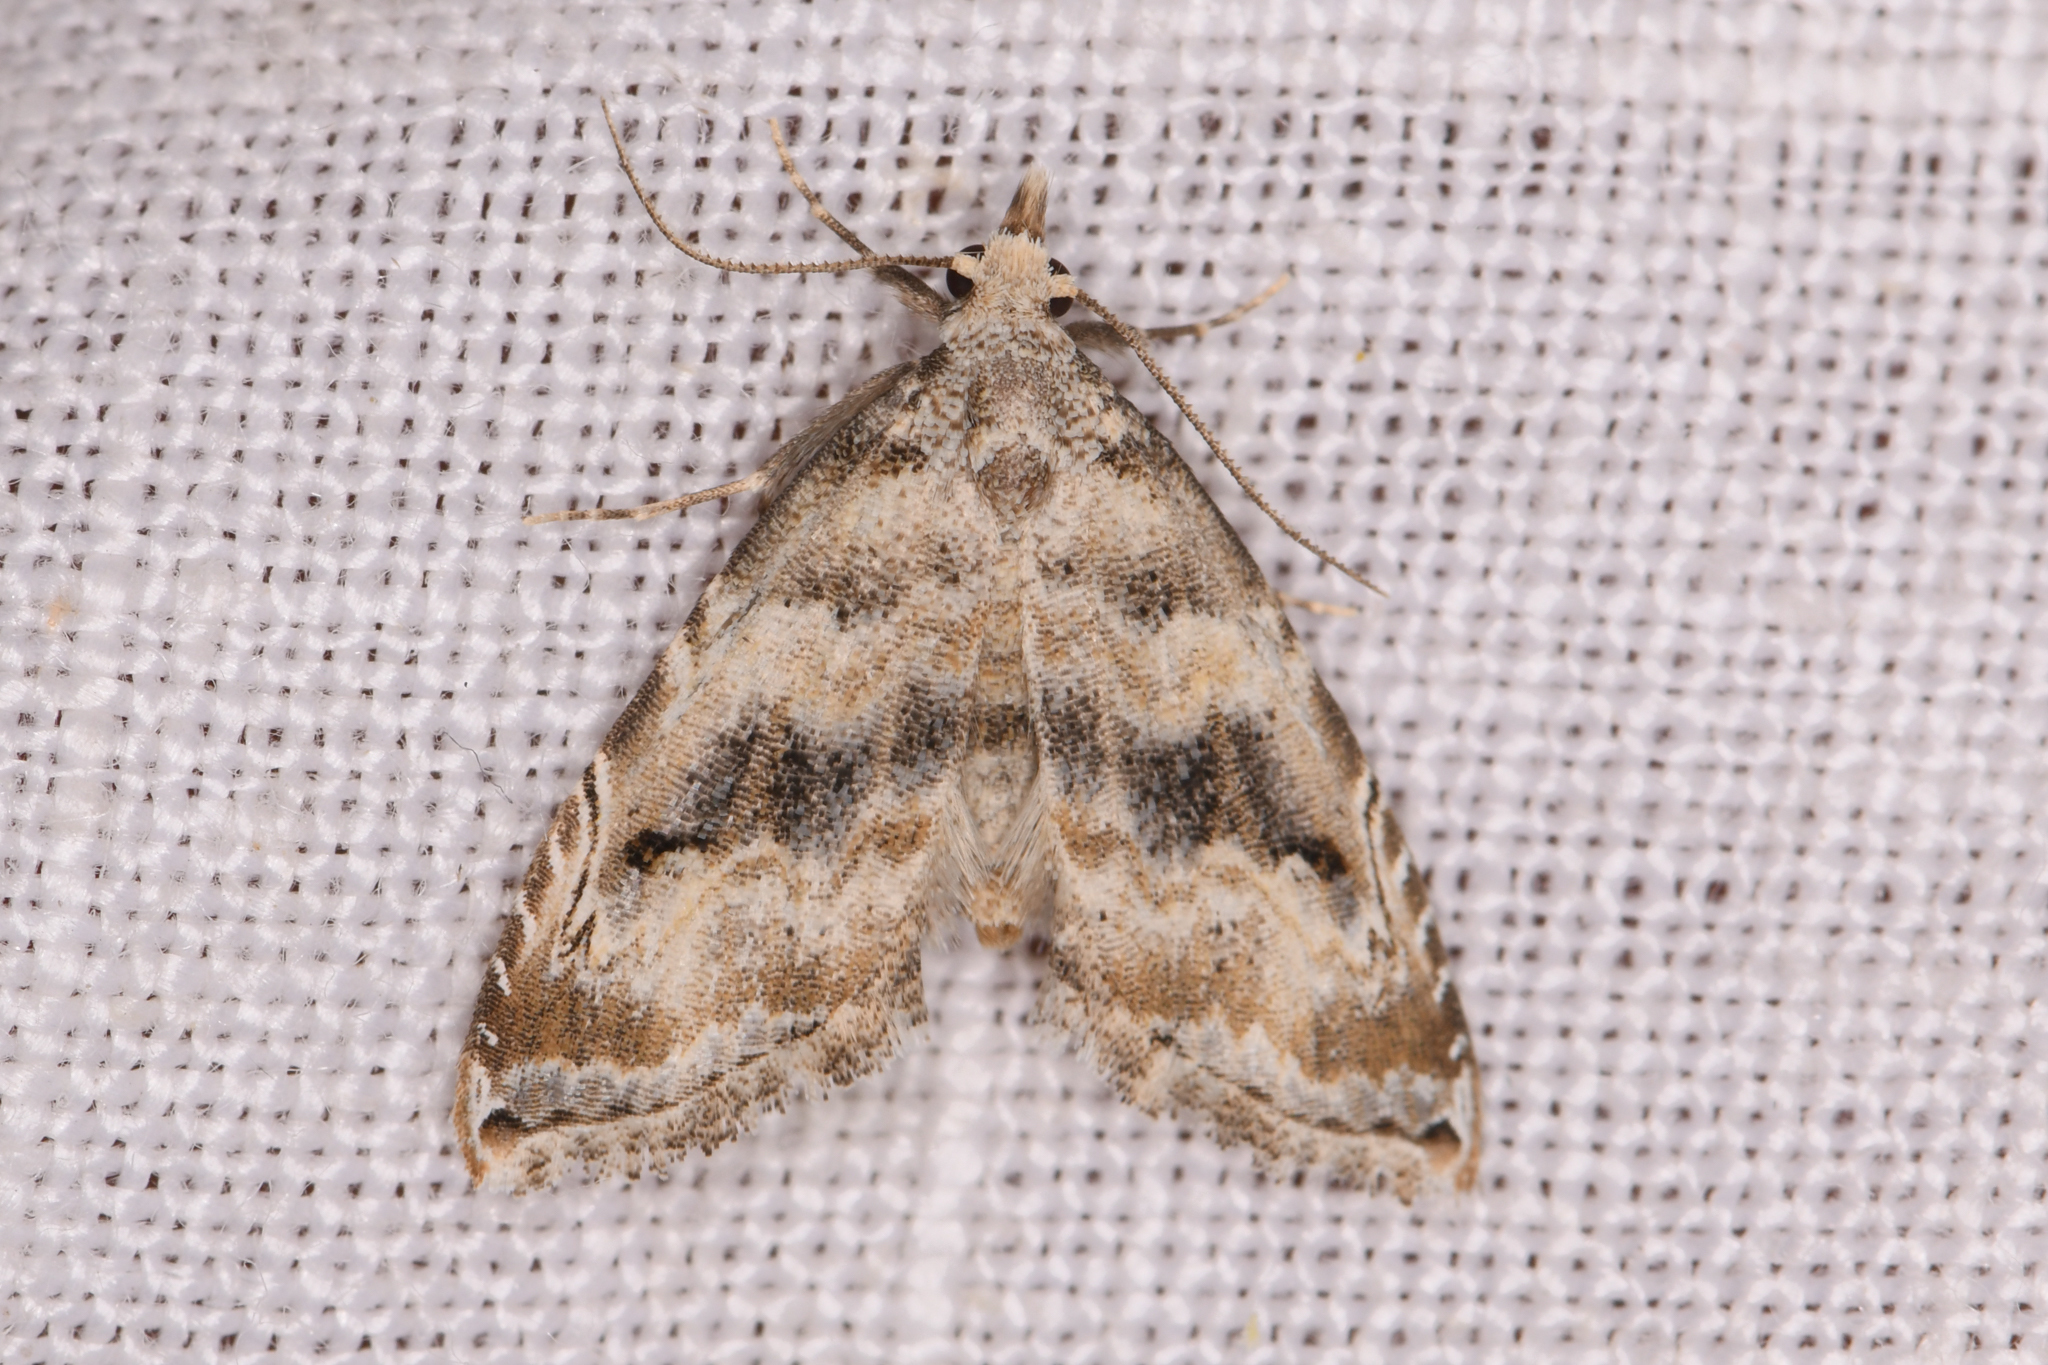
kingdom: Animalia
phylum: Arthropoda
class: Insecta
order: Lepidoptera
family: Noctuidae
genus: Phobolosia
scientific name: Phobolosia anfracta
